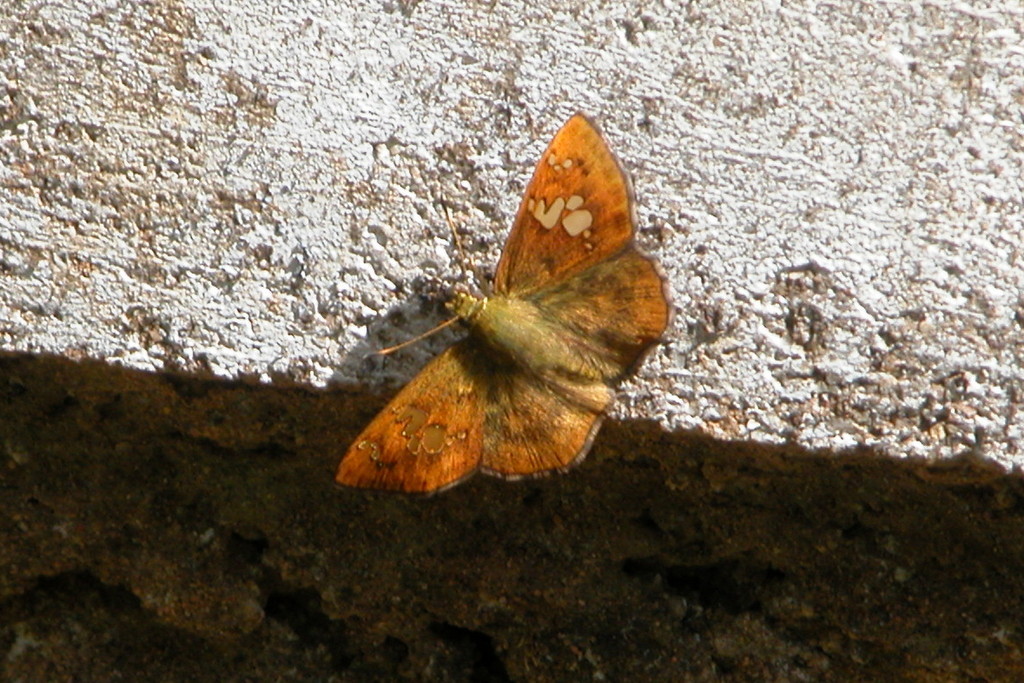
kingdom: Animalia
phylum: Arthropoda
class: Insecta
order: Lepidoptera
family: Hesperiidae
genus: Pseudocoladenia
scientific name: Pseudocoladenia dan
